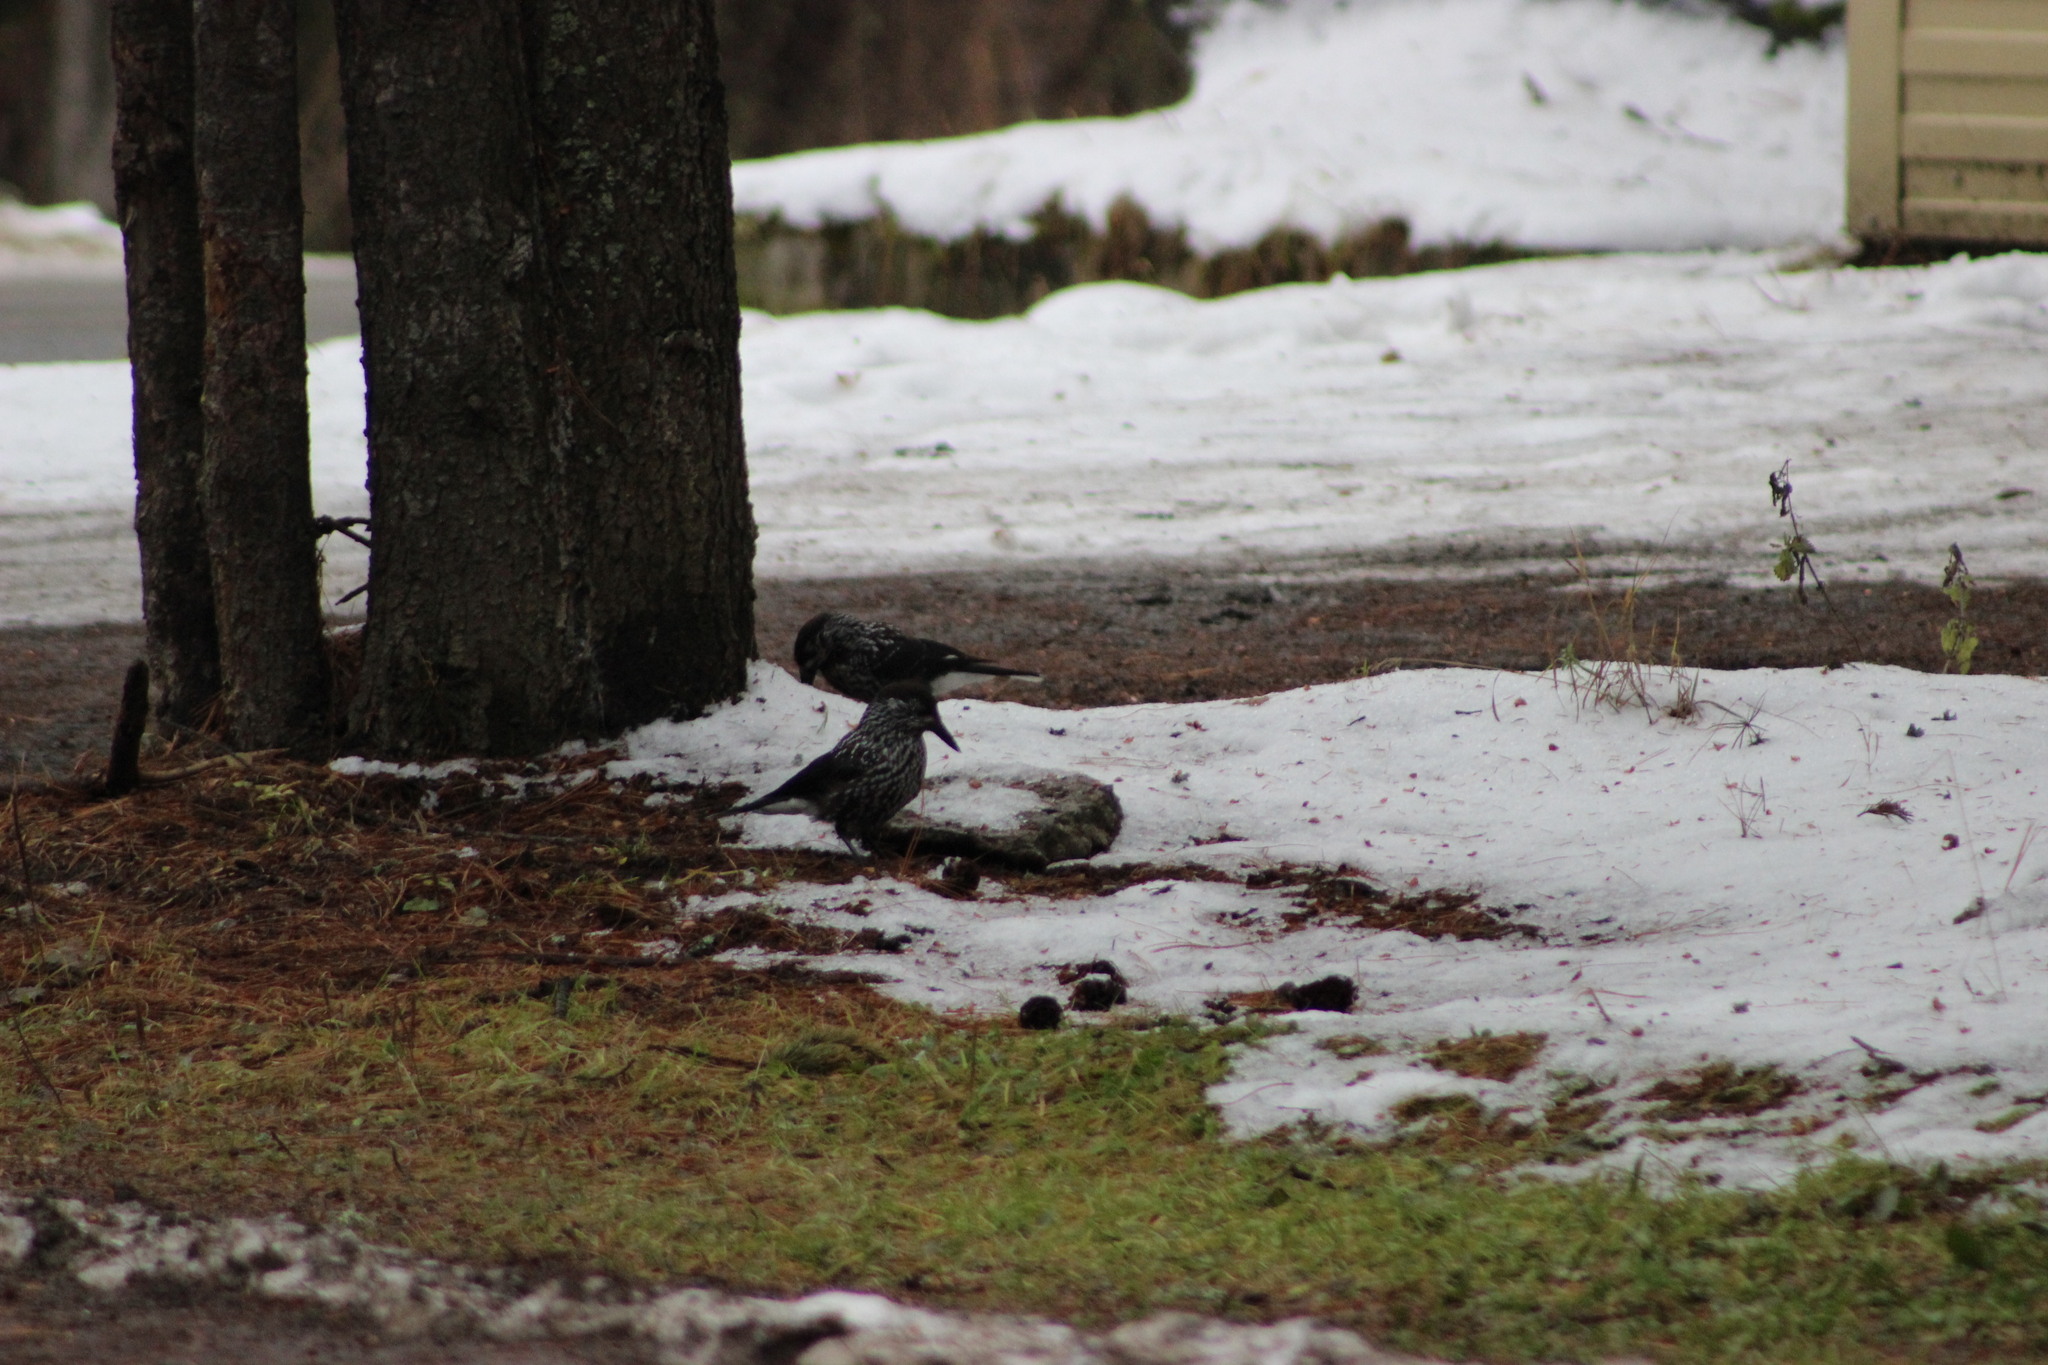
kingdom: Animalia
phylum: Chordata
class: Aves
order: Passeriformes
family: Corvidae
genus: Nucifraga
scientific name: Nucifraga caryocatactes
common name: Spotted nutcracker
